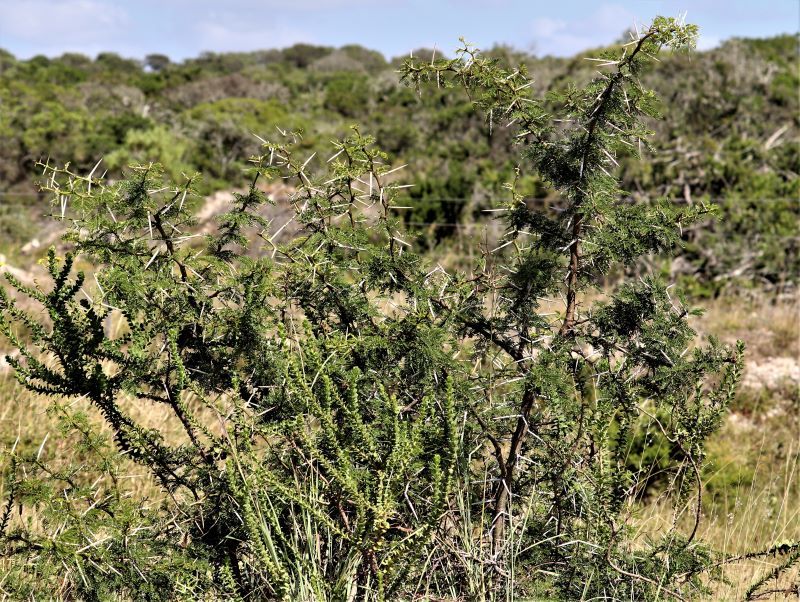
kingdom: Plantae
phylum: Tracheophyta
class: Magnoliopsida
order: Fabales
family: Fabaceae
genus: Vachellia
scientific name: Vachellia karroo
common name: Sweet thorn
